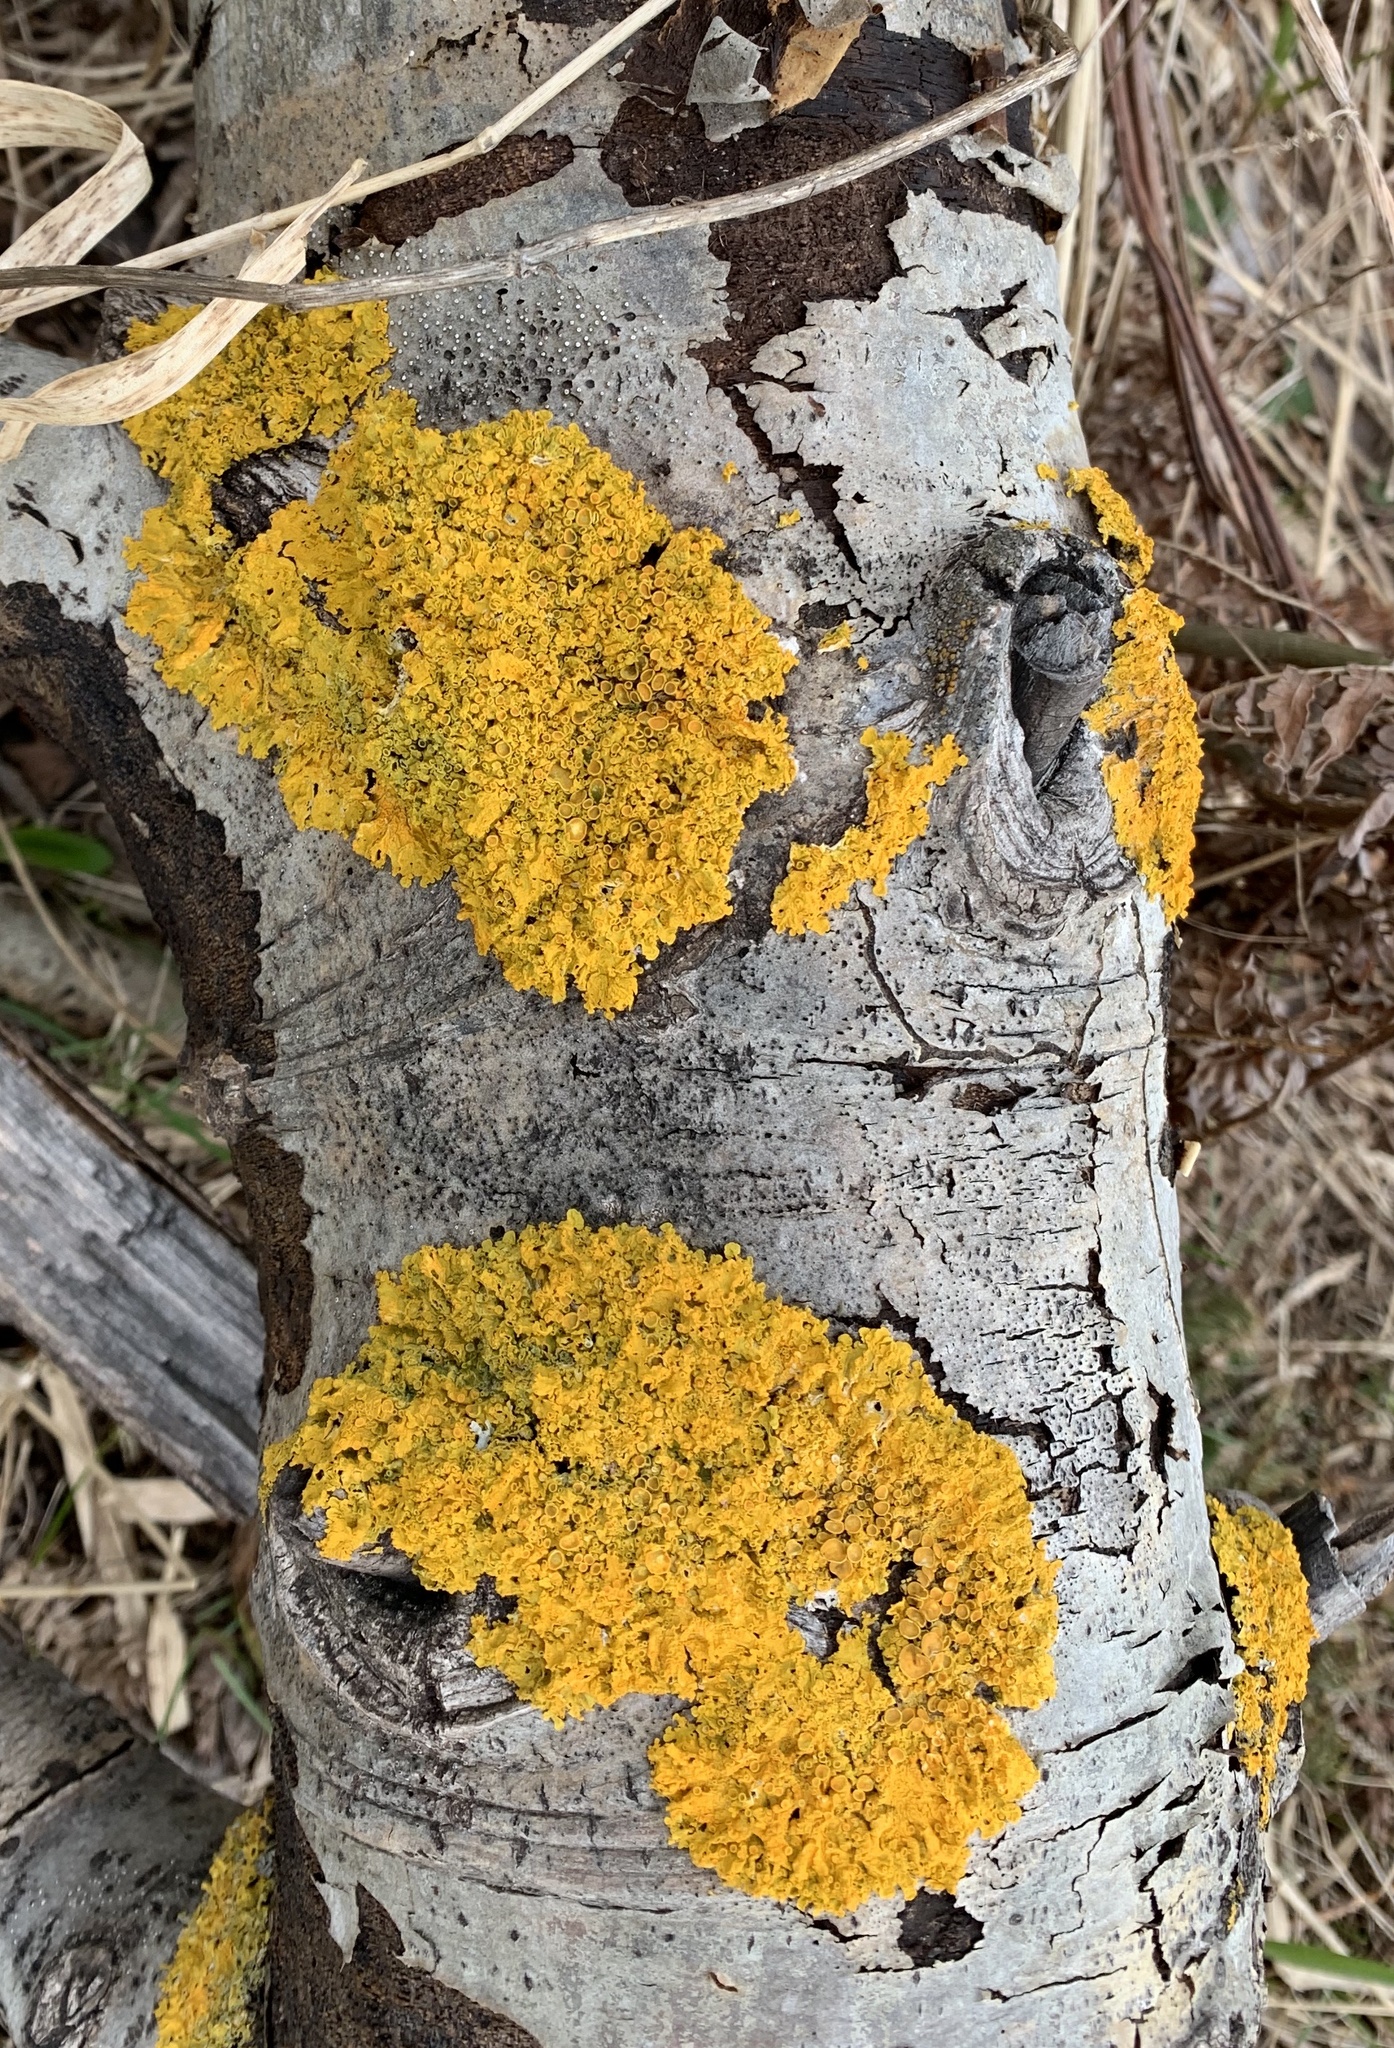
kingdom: Fungi
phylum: Ascomycota
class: Lecanoromycetes
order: Teloschistales
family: Teloschistaceae
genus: Xanthoria
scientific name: Xanthoria parietina
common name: Common orange lichen
